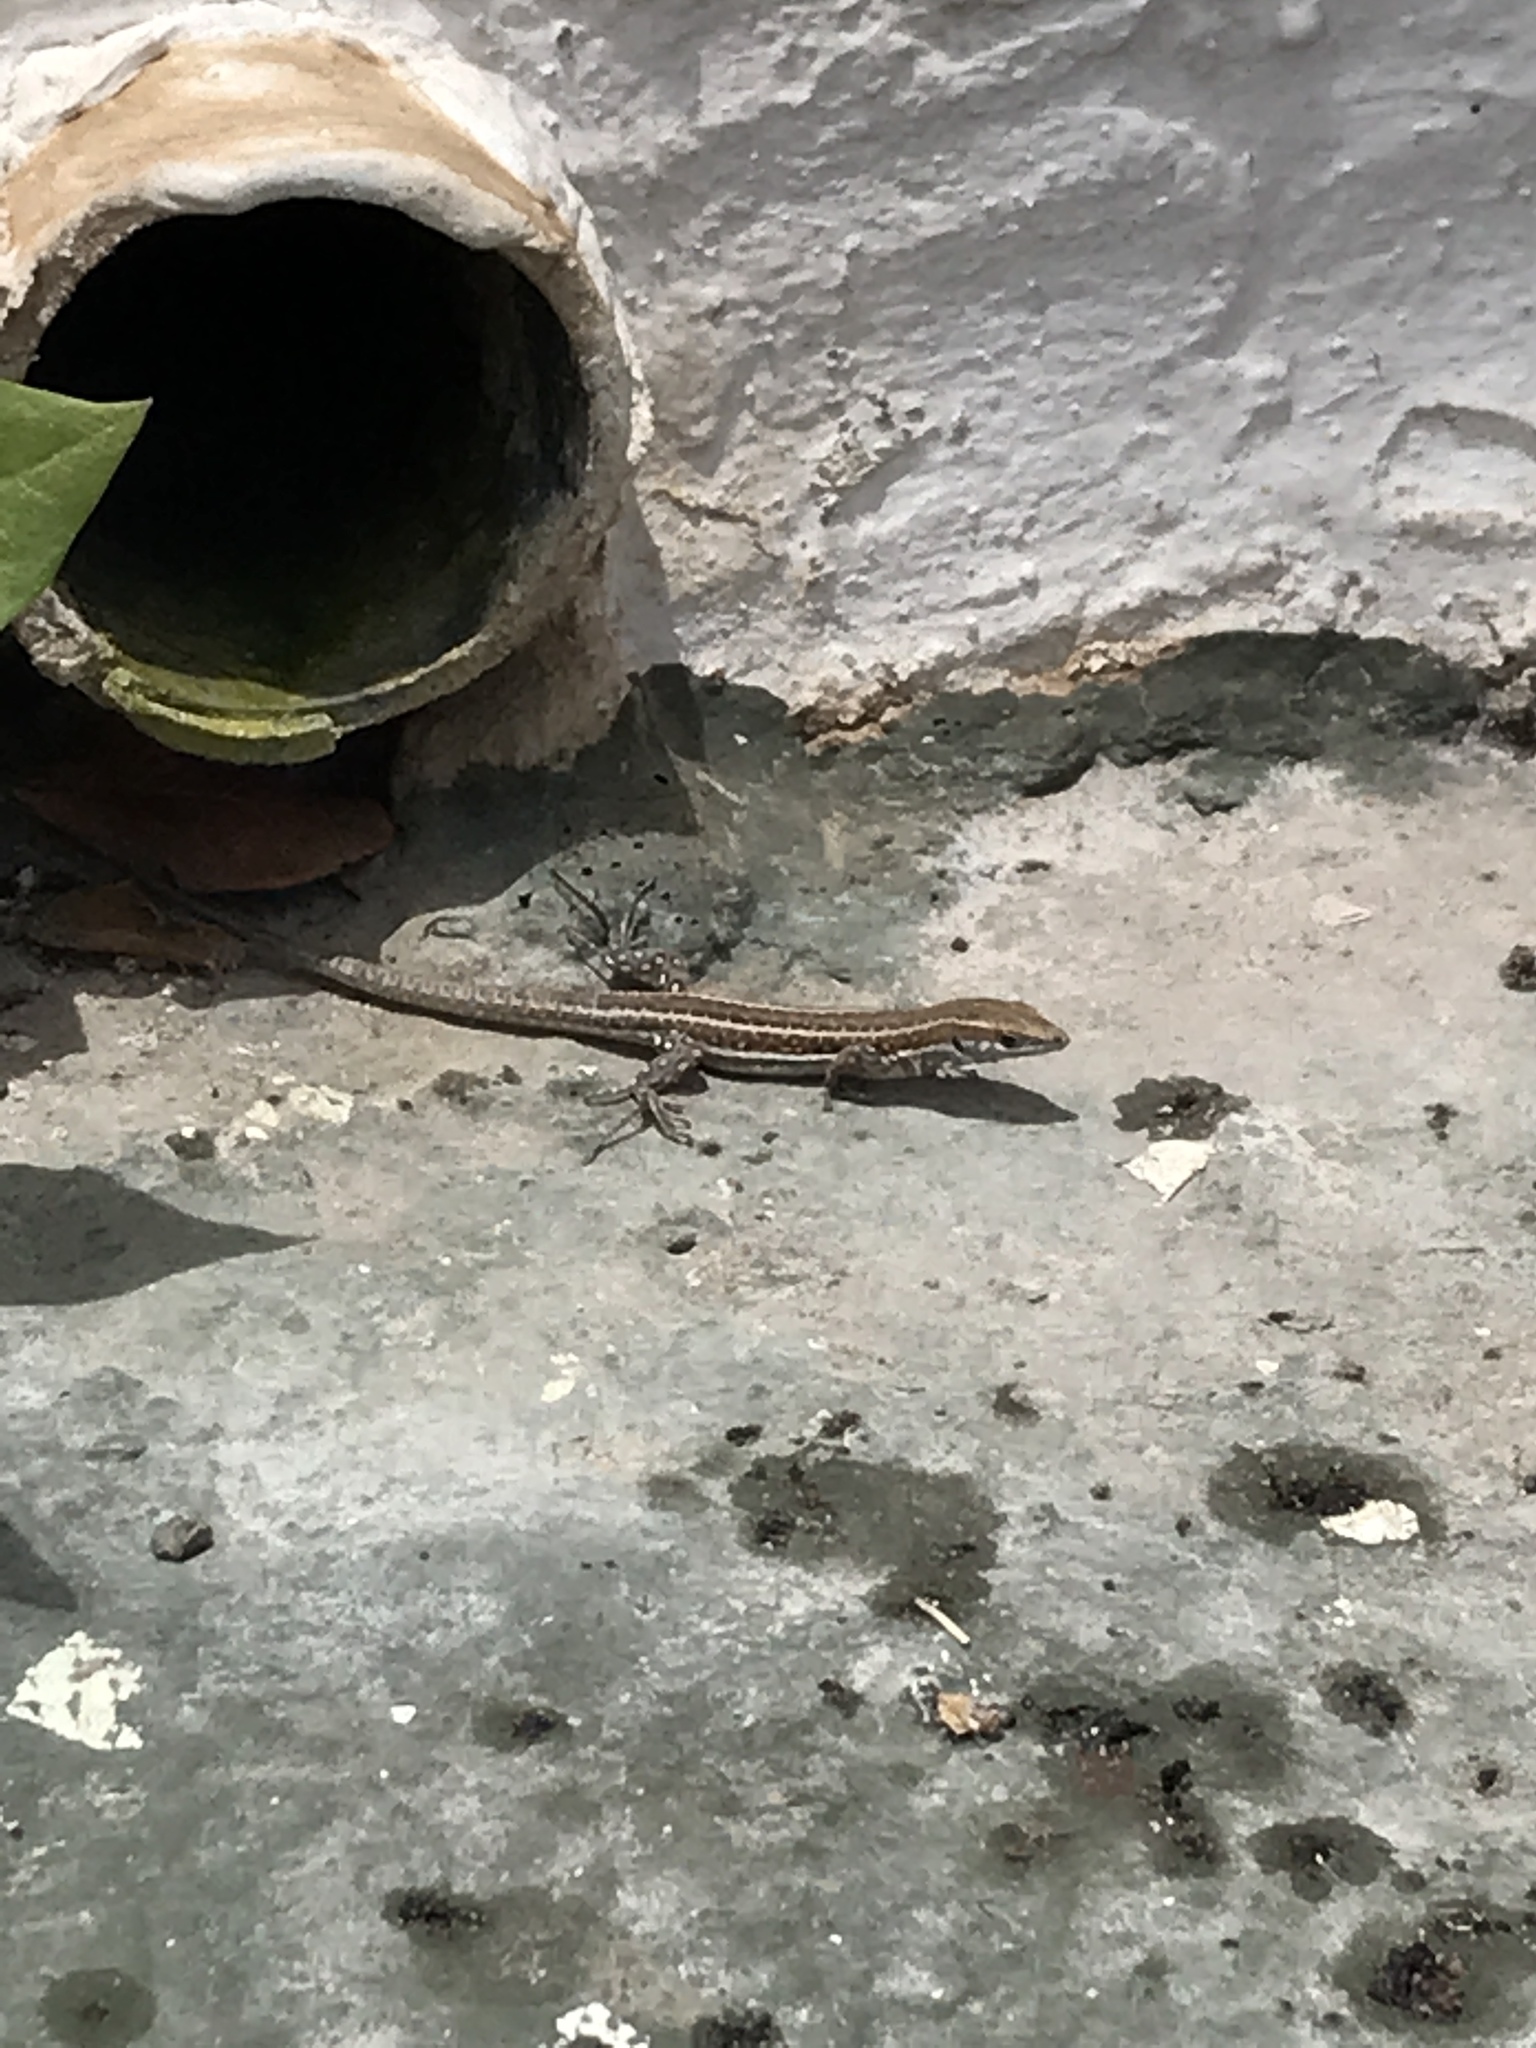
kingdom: Animalia
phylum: Chordata
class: Squamata
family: Lacertidae
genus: Gallotia
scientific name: Gallotia atlantica
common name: Atlantic lizard
